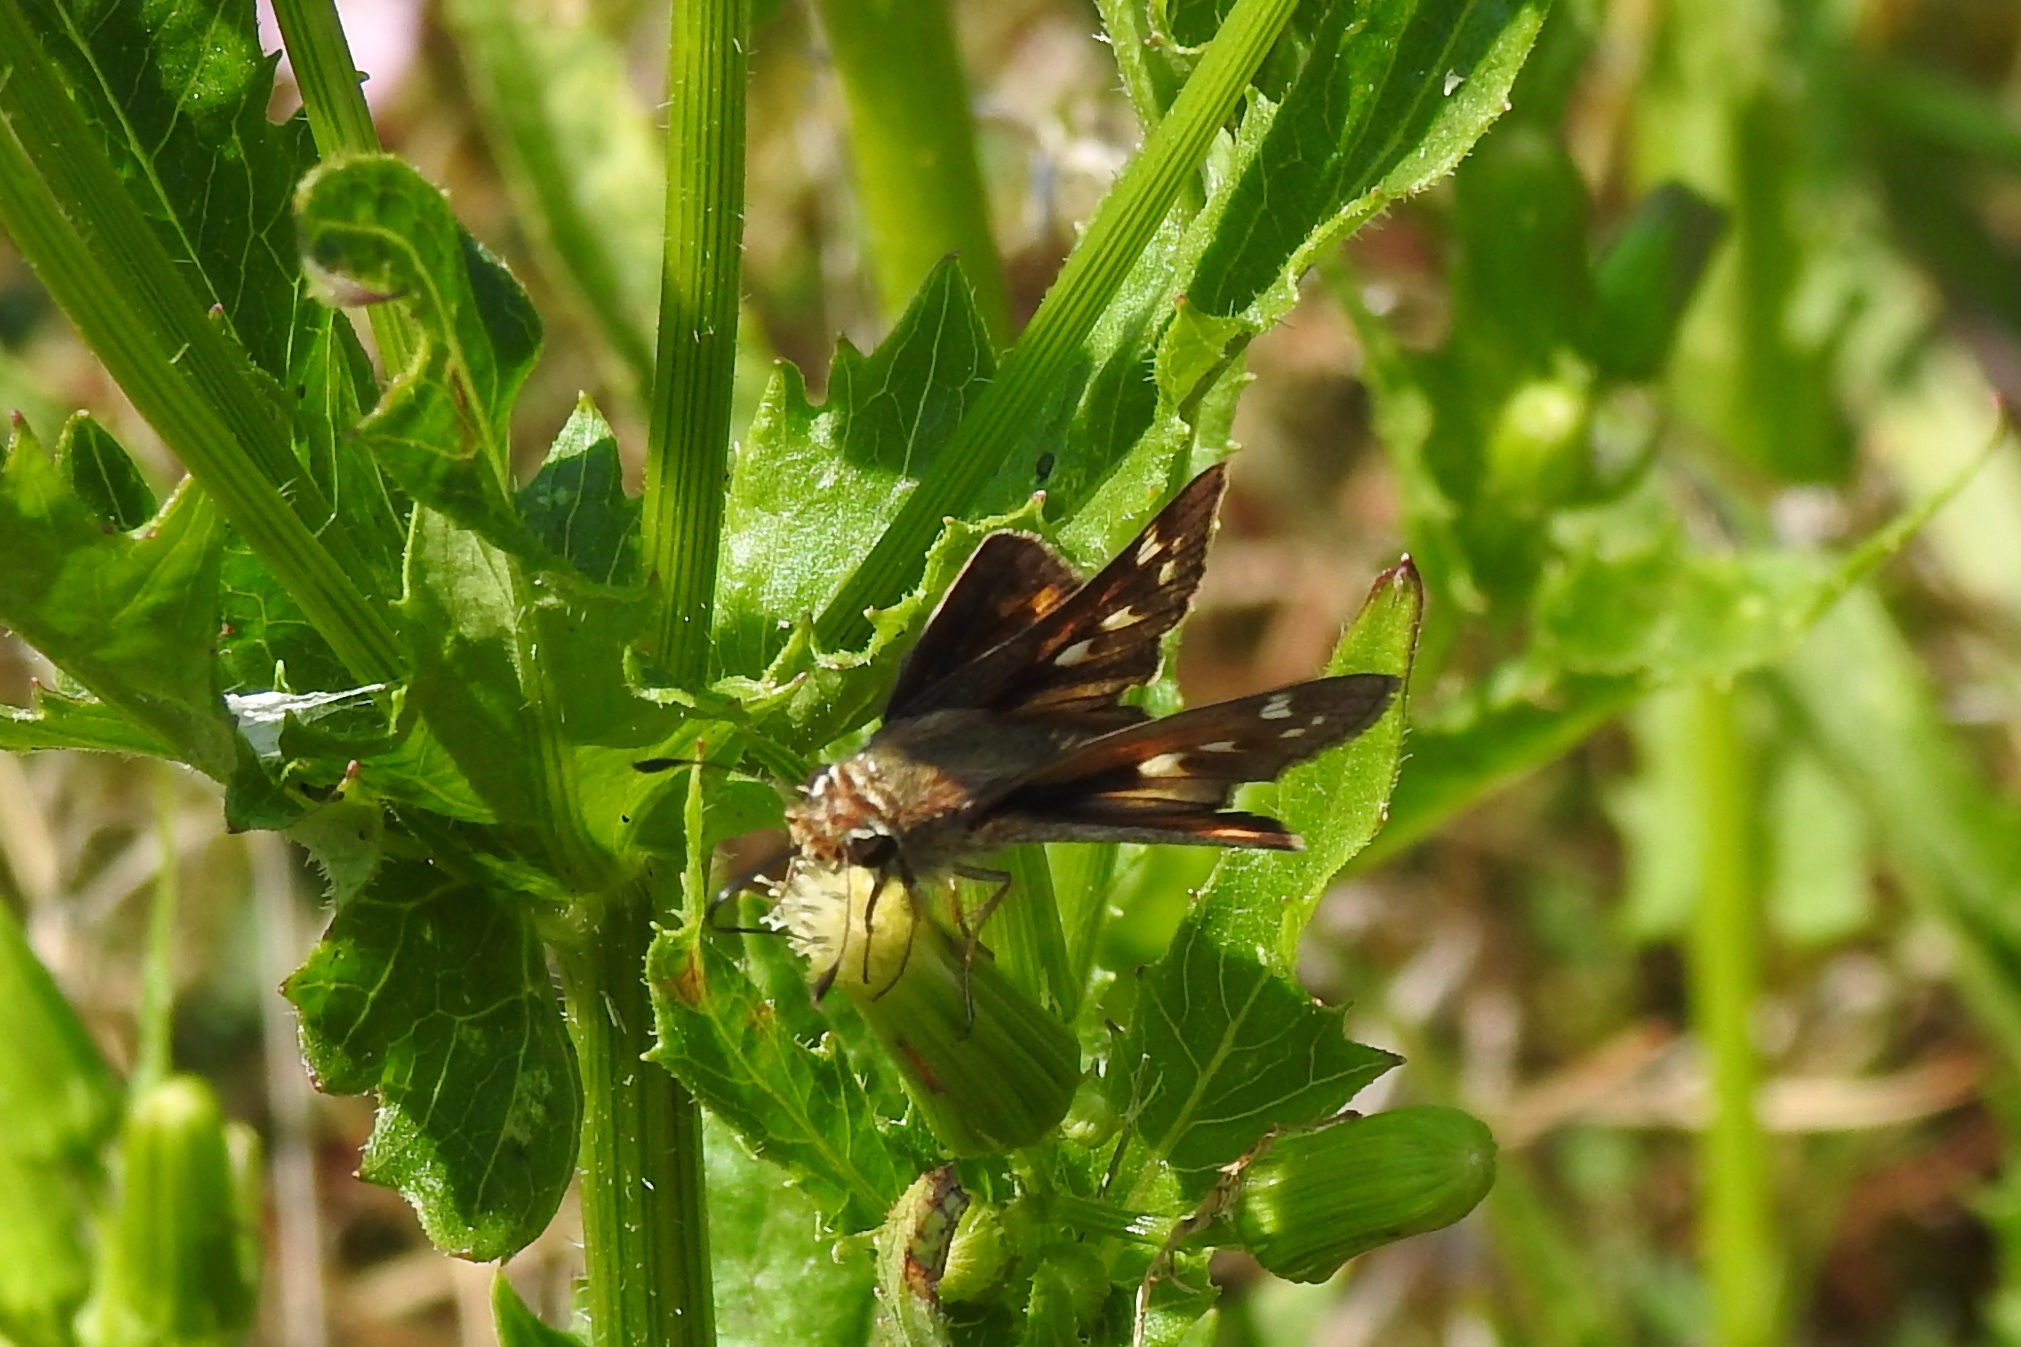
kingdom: Animalia
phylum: Arthropoda
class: Insecta
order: Lepidoptera
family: Hesperiidae
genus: Atalopedes
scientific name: Atalopedes
